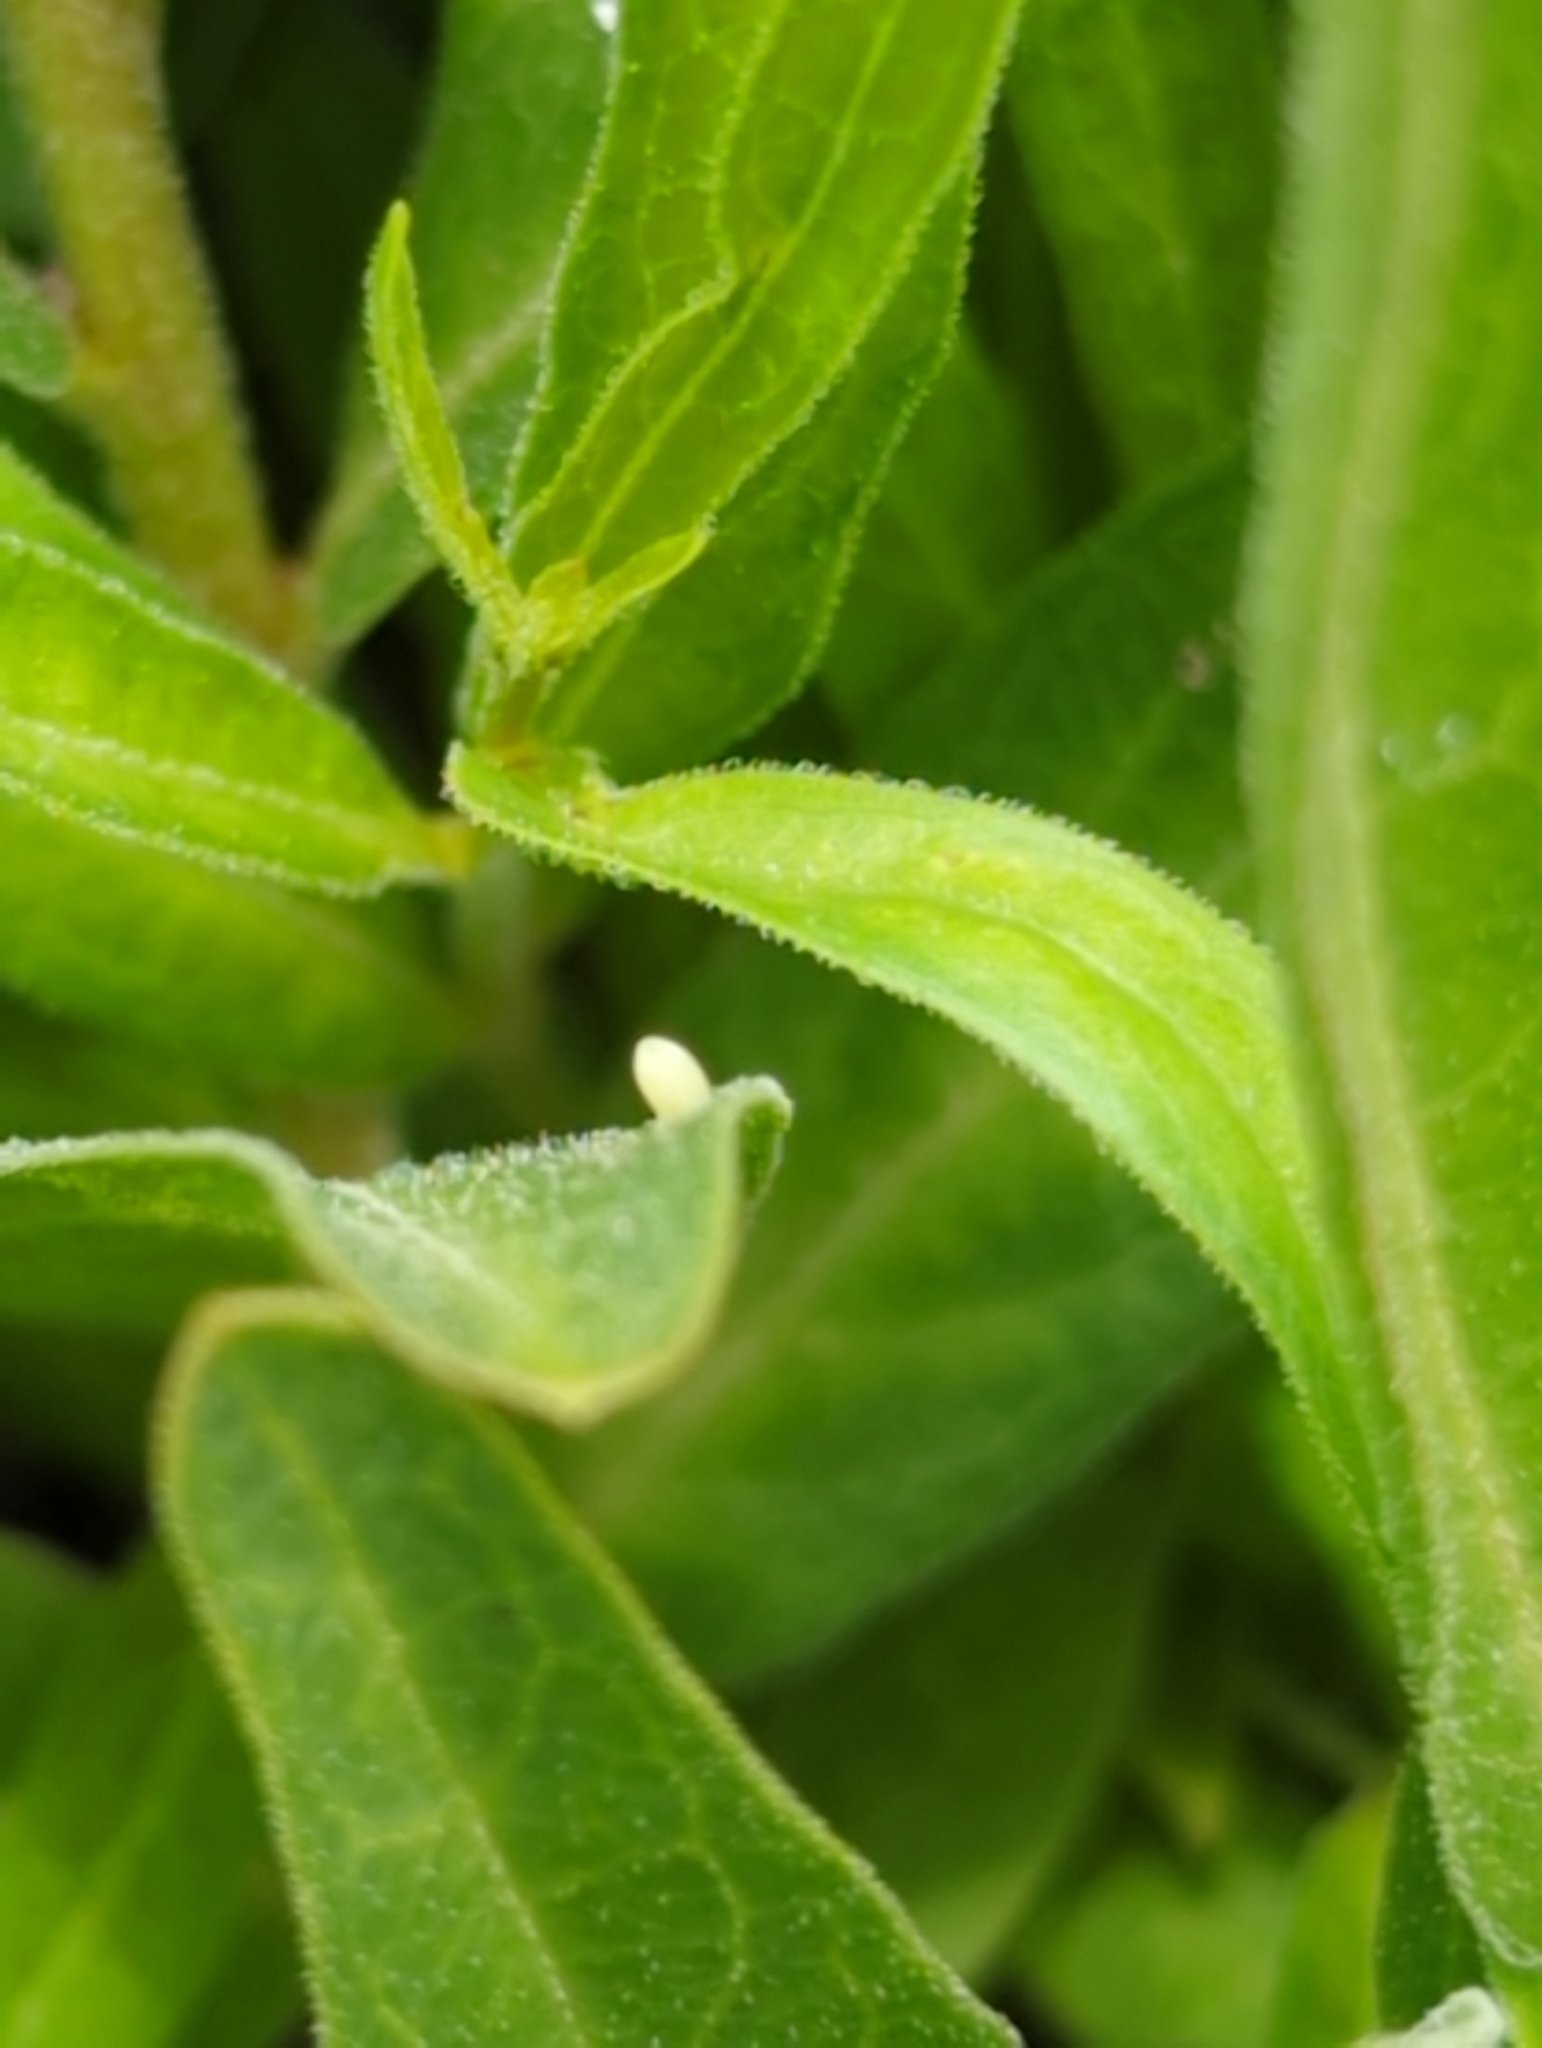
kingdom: Animalia
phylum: Arthropoda
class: Insecta
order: Lepidoptera
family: Nymphalidae
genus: Danaus
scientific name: Danaus plexippus
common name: Monarch
